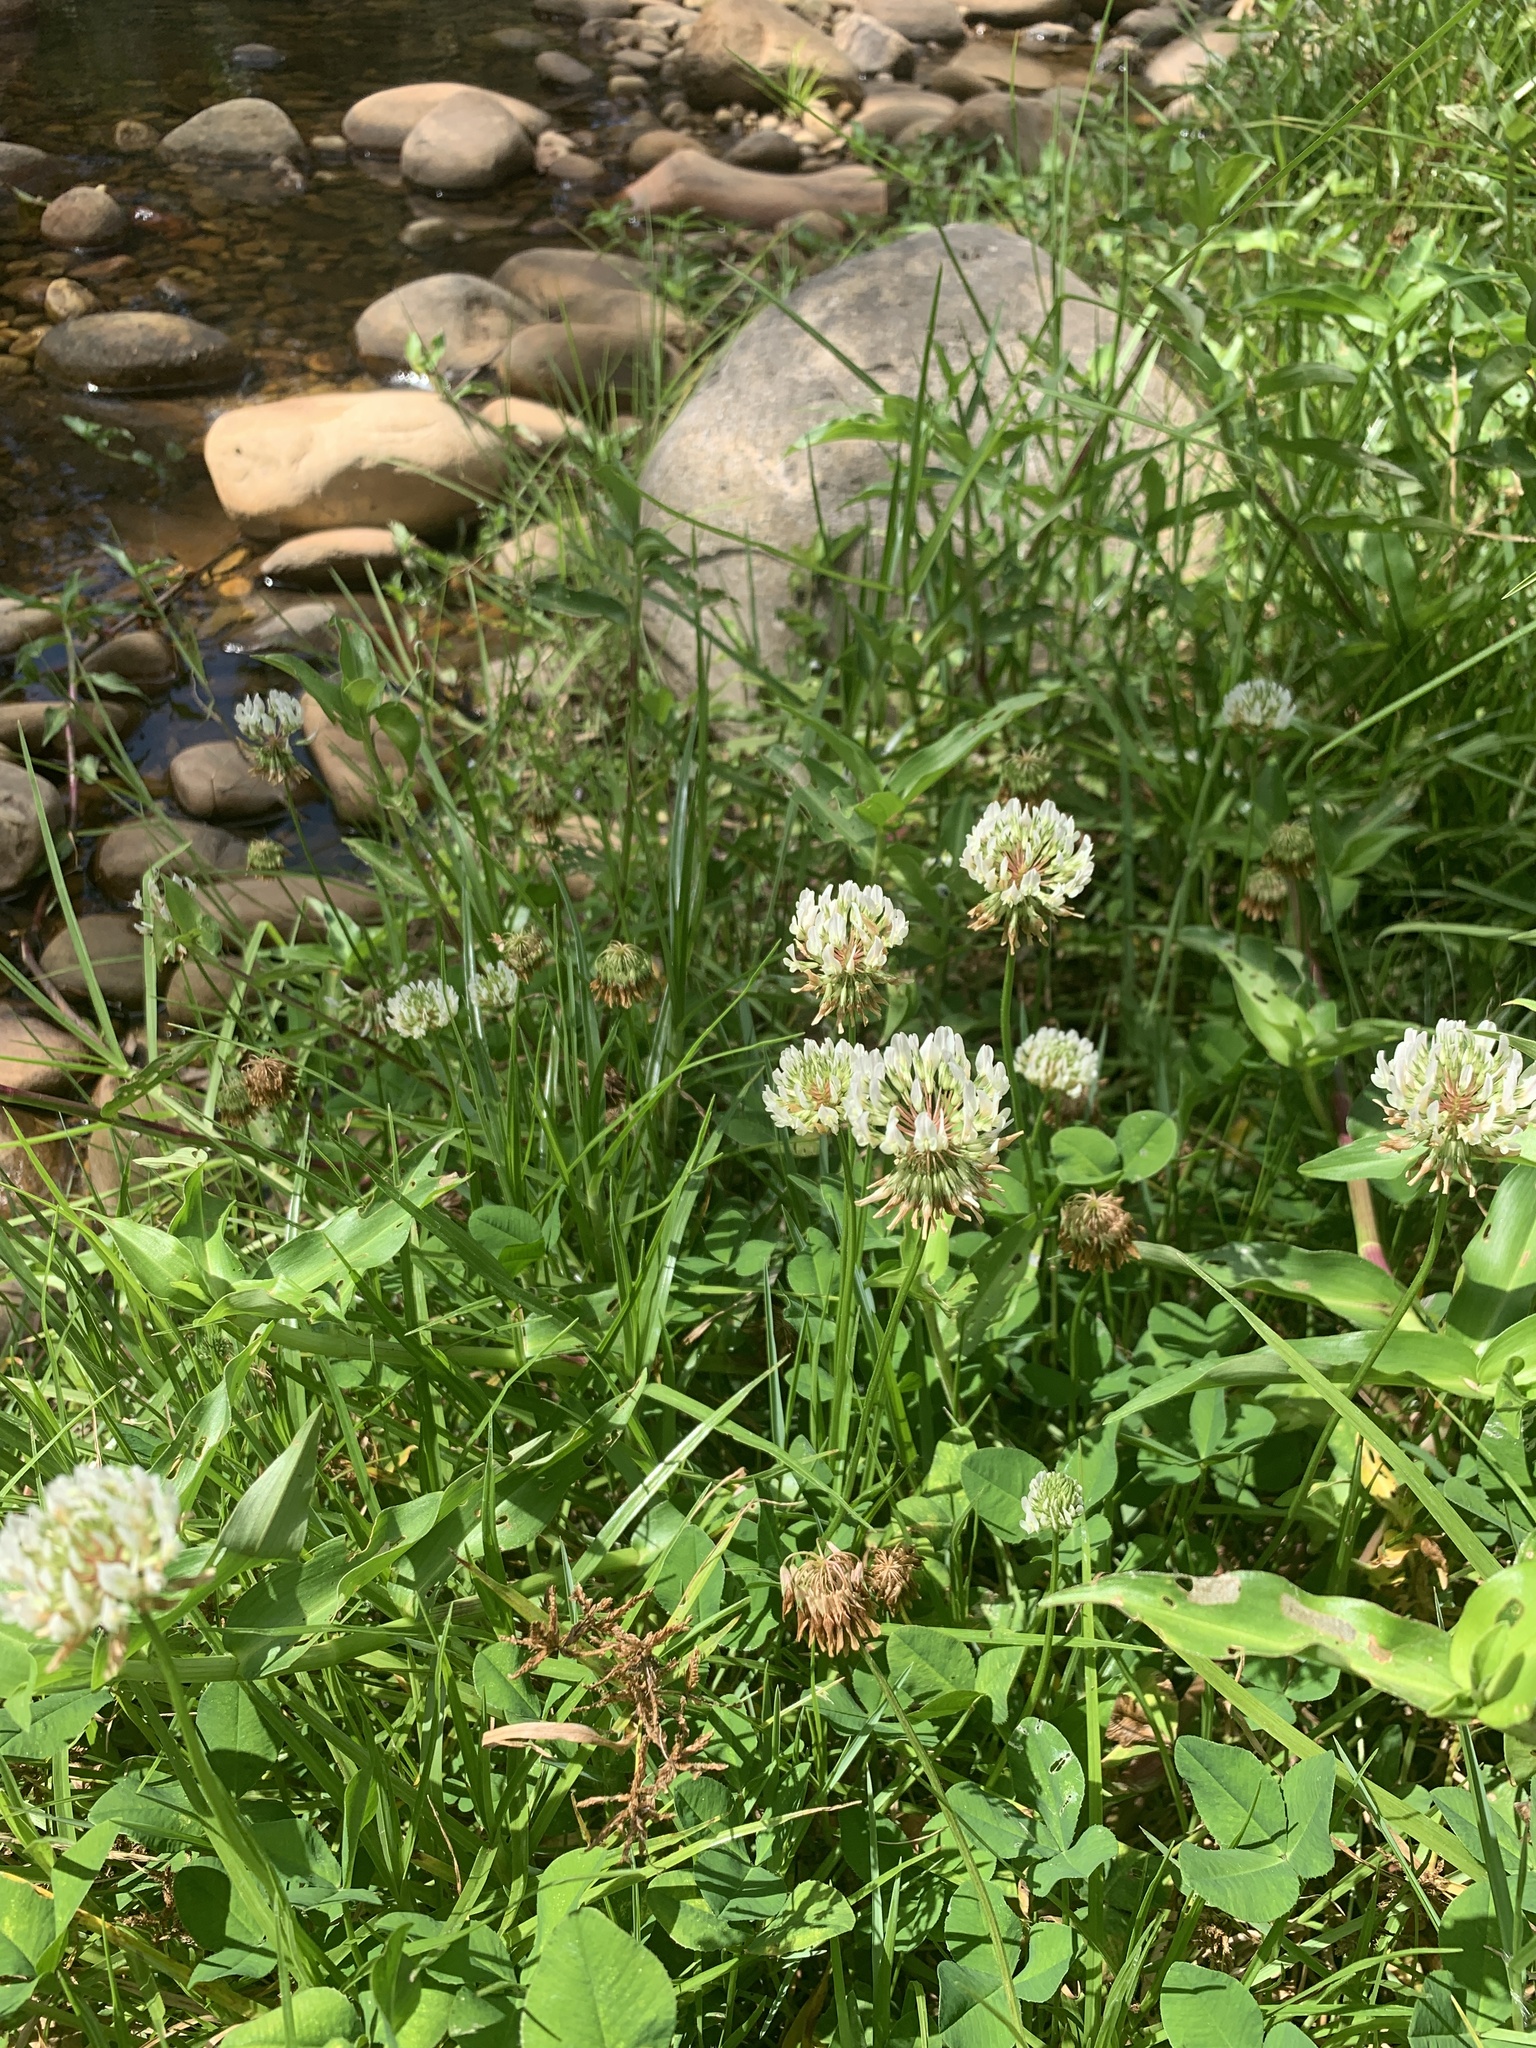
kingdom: Plantae
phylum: Tracheophyta
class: Magnoliopsida
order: Fabales
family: Fabaceae
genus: Trifolium
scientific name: Trifolium repens
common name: White clover
